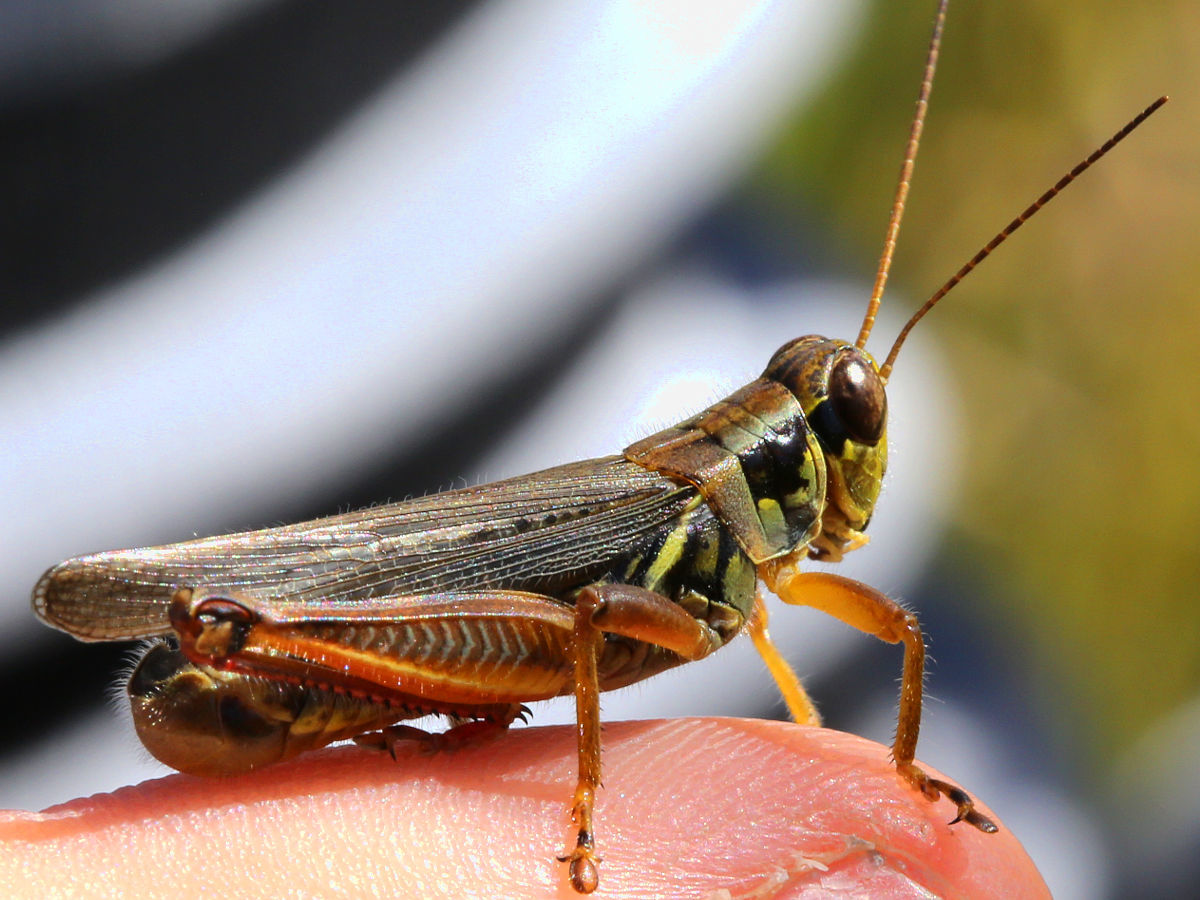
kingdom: Animalia
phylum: Arthropoda
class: Insecta
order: Orthoptera
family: Acrididae
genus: Melanoplus
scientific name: Melanoplus femurrubrum
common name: Red-legged grasshopper
